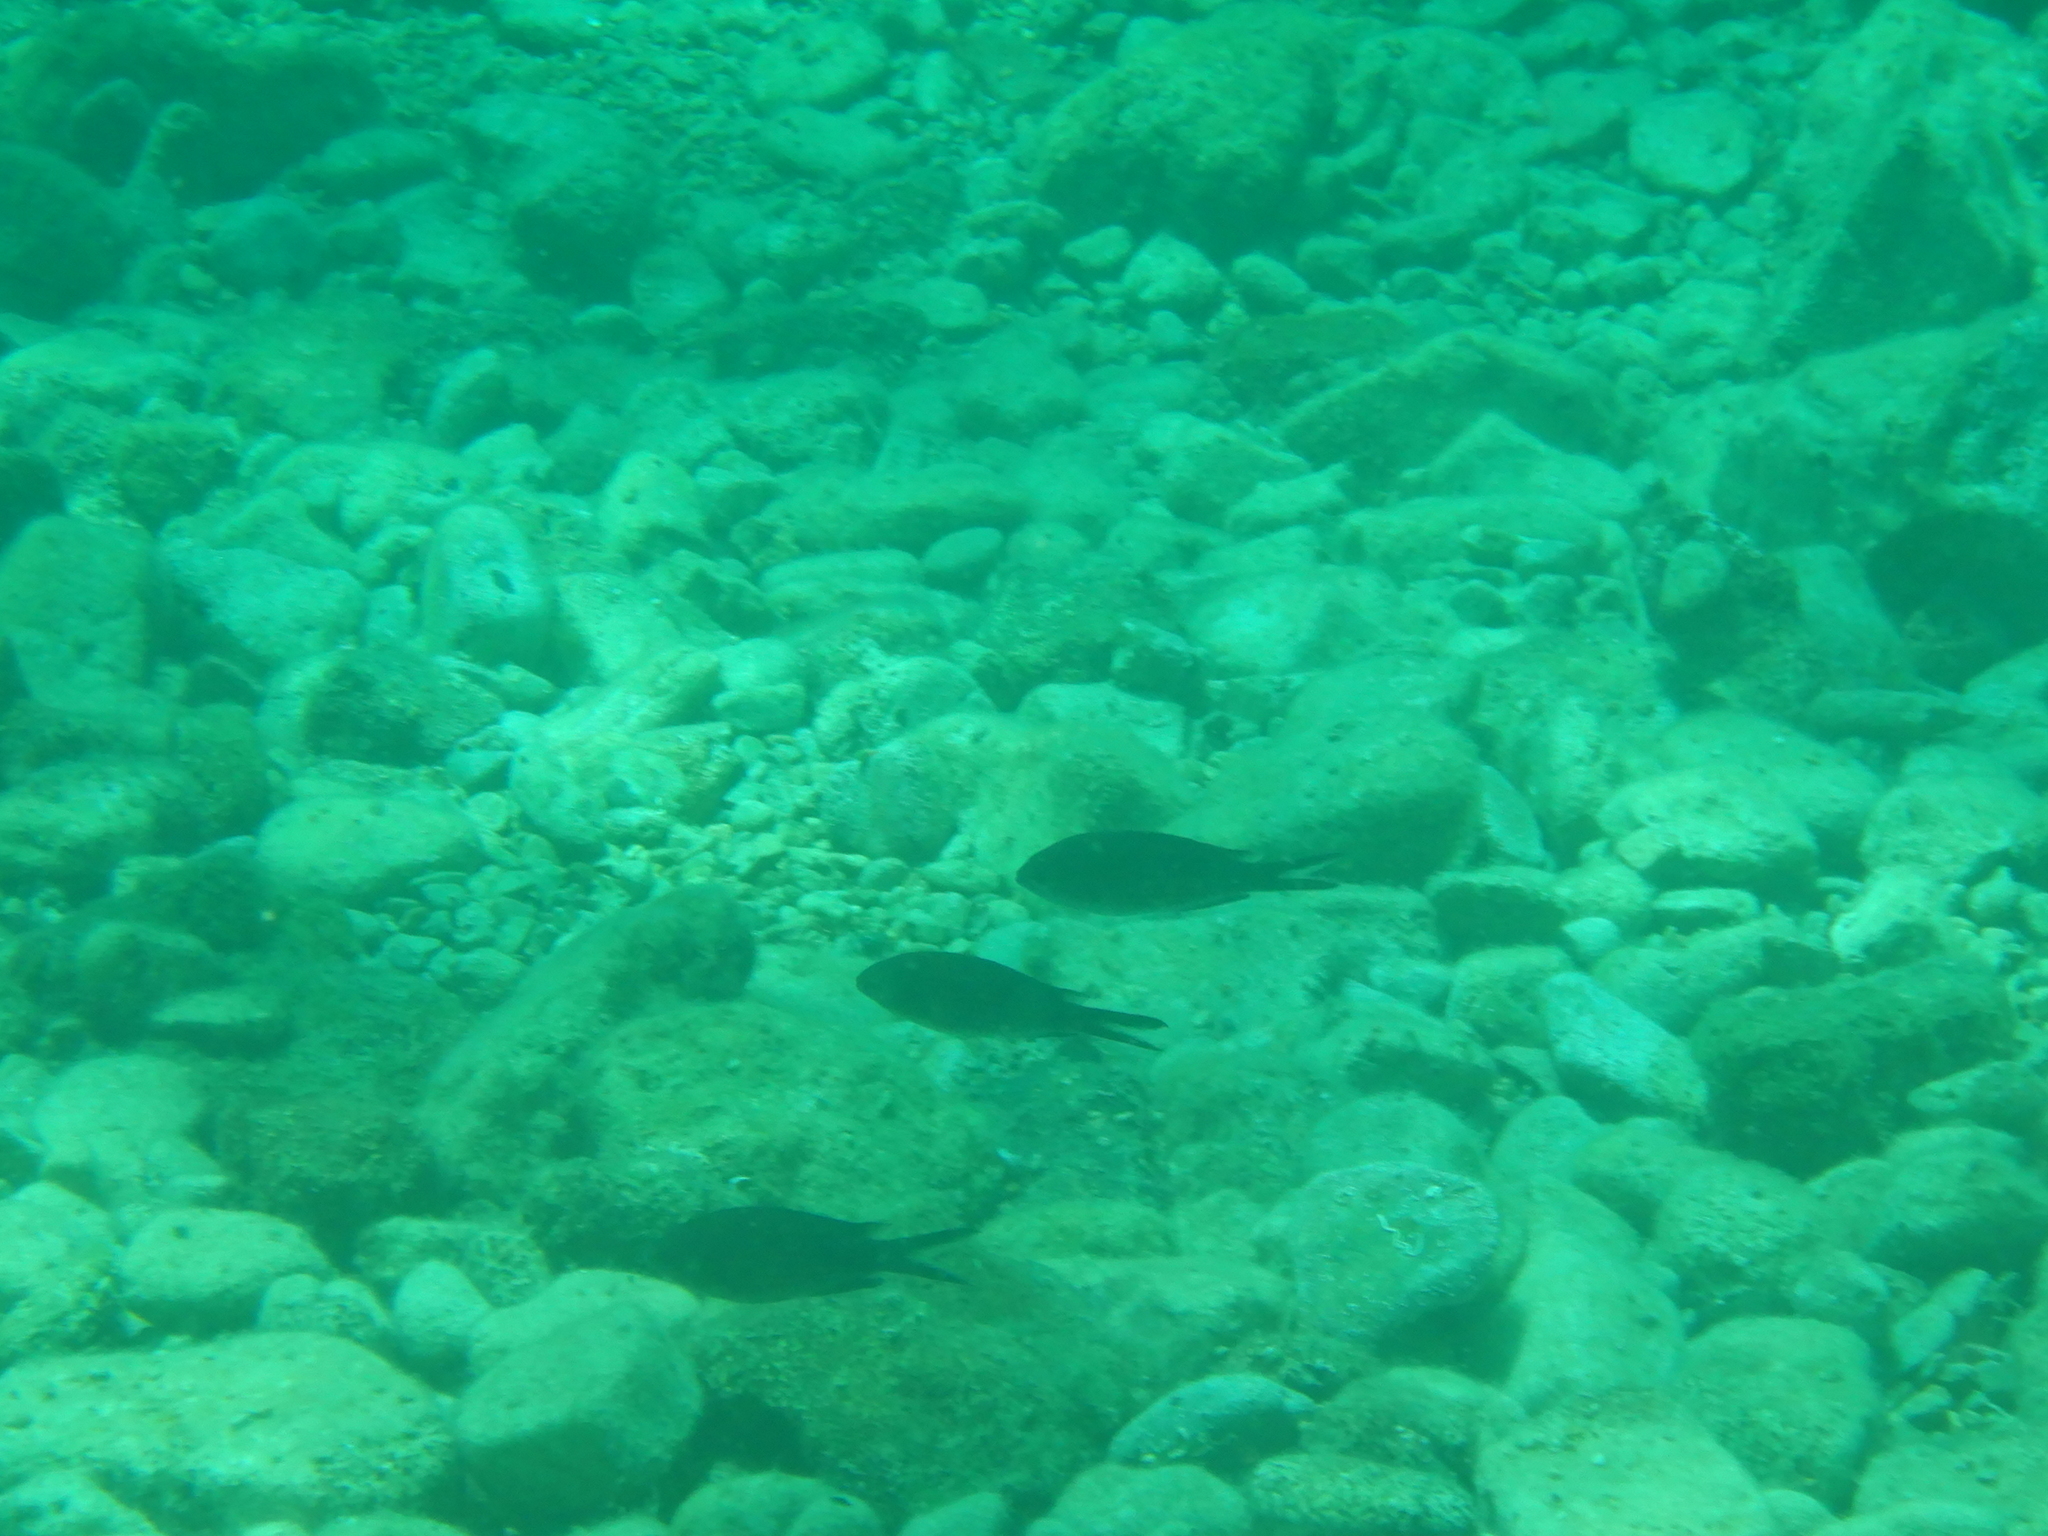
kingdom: Animalia
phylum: Chordata
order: Perciformes
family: Pomacentridae
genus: Chromis
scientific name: Chromis chromis
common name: Damselfish
